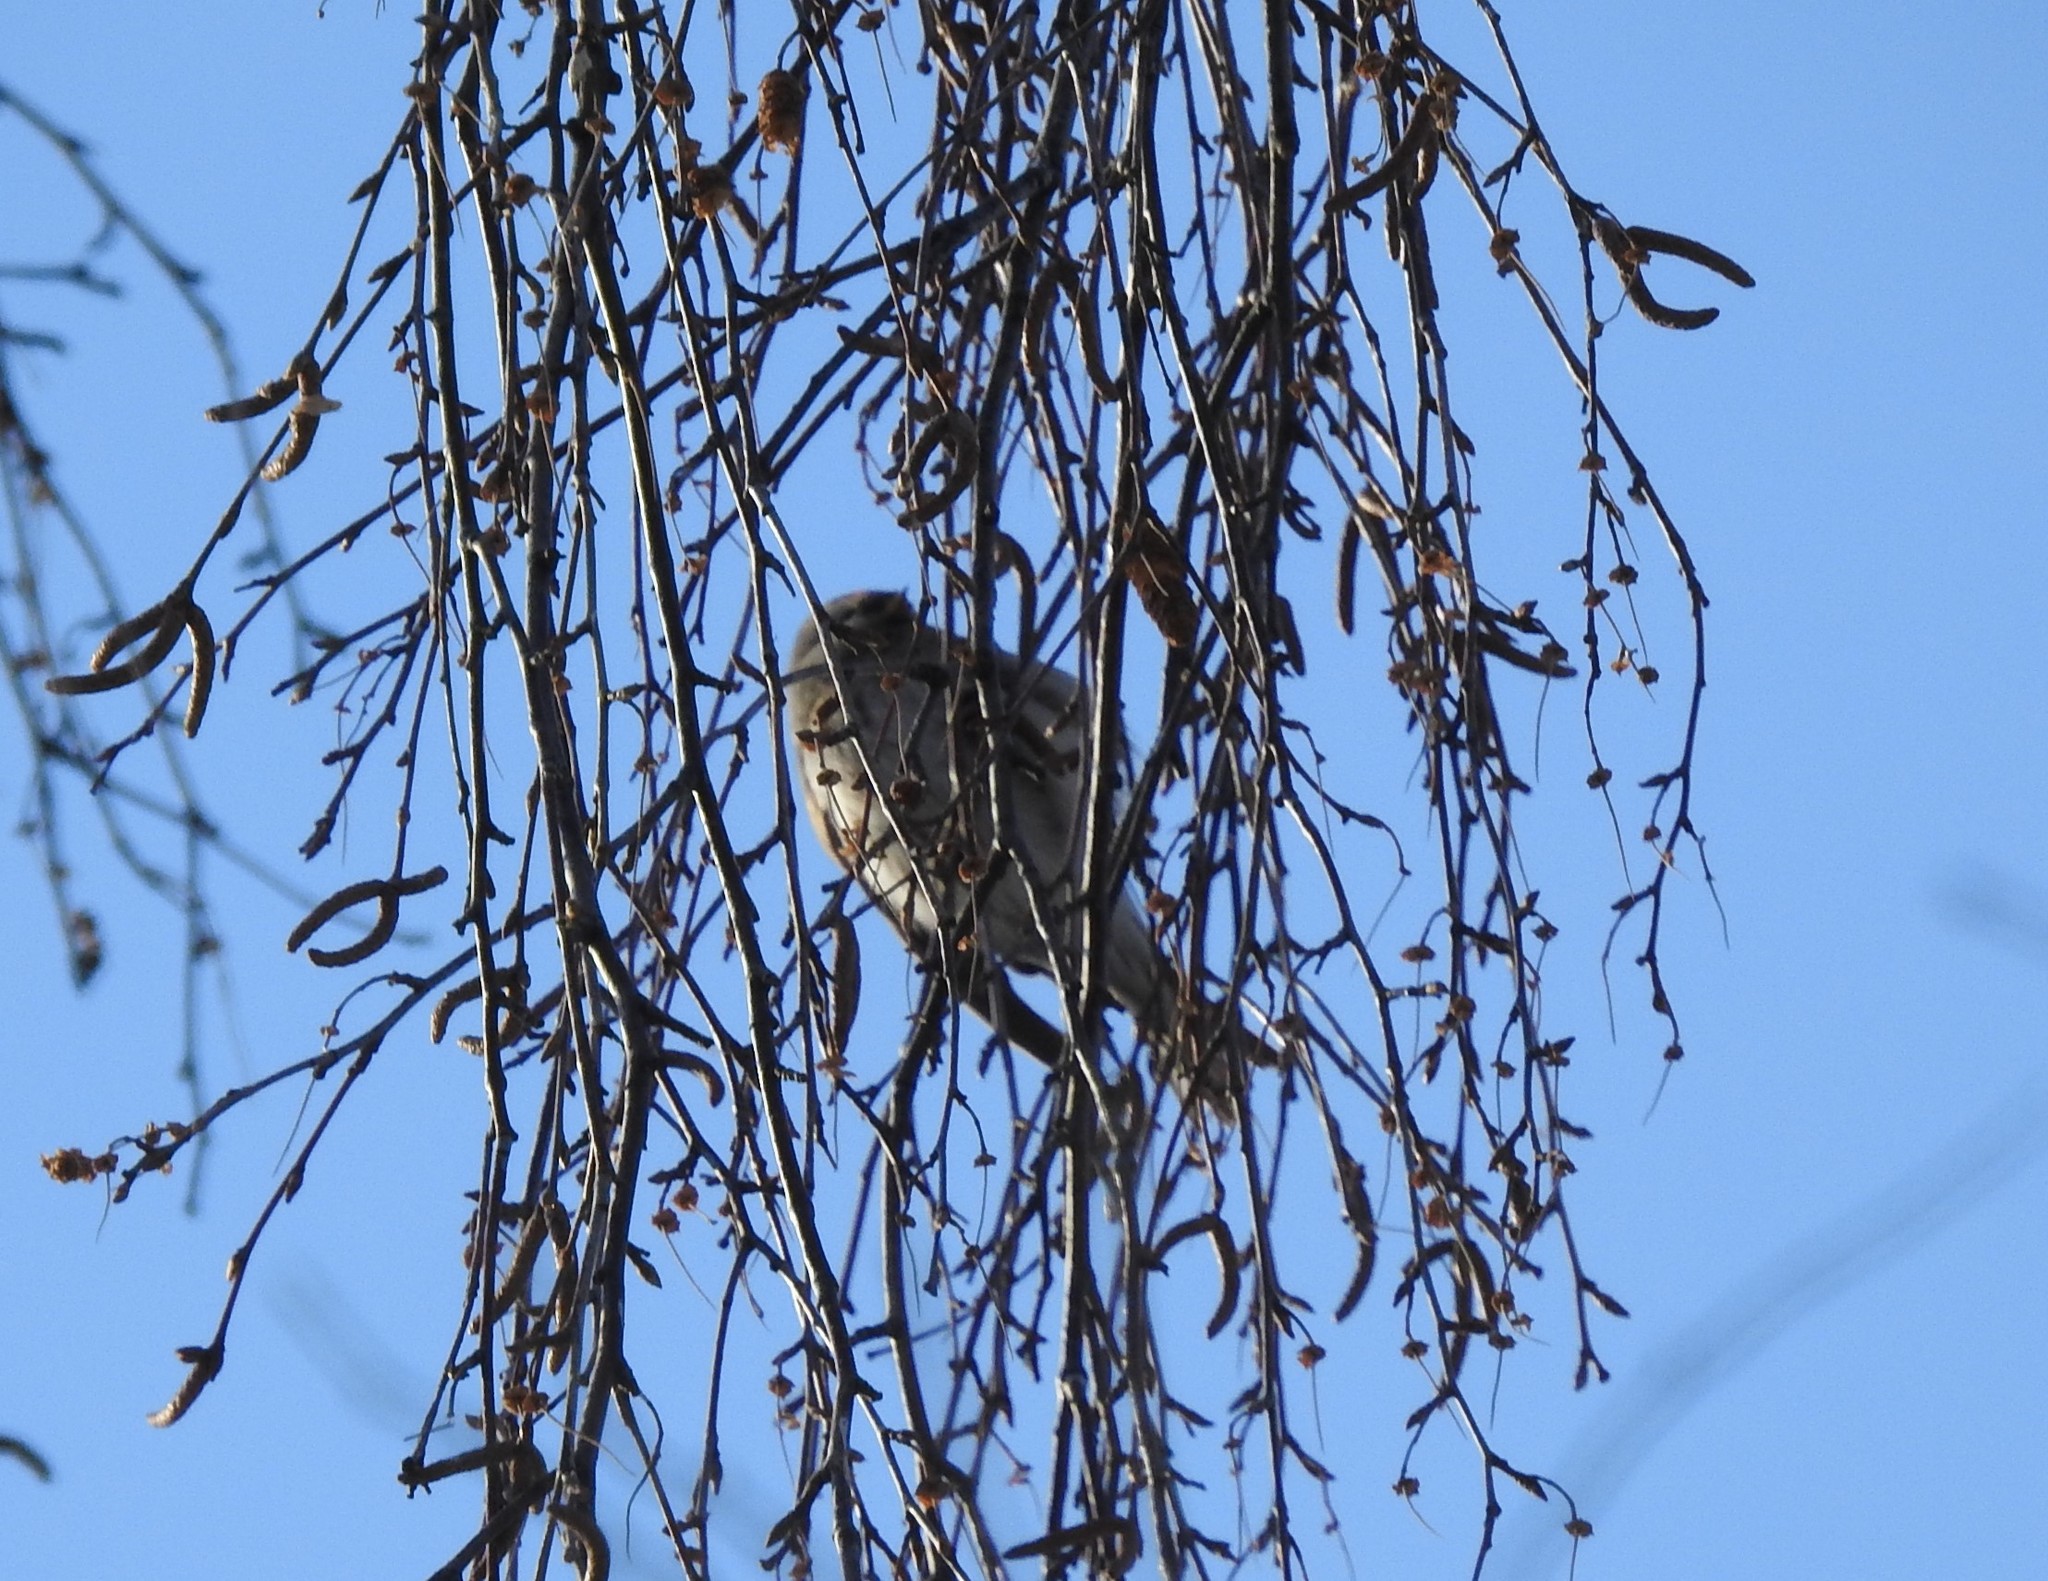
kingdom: Animalia
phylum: Chordata
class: Aves
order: Passeriformes
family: Fringillidae
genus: Acanthis
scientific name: Acanthis flammea
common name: Common redpoll
